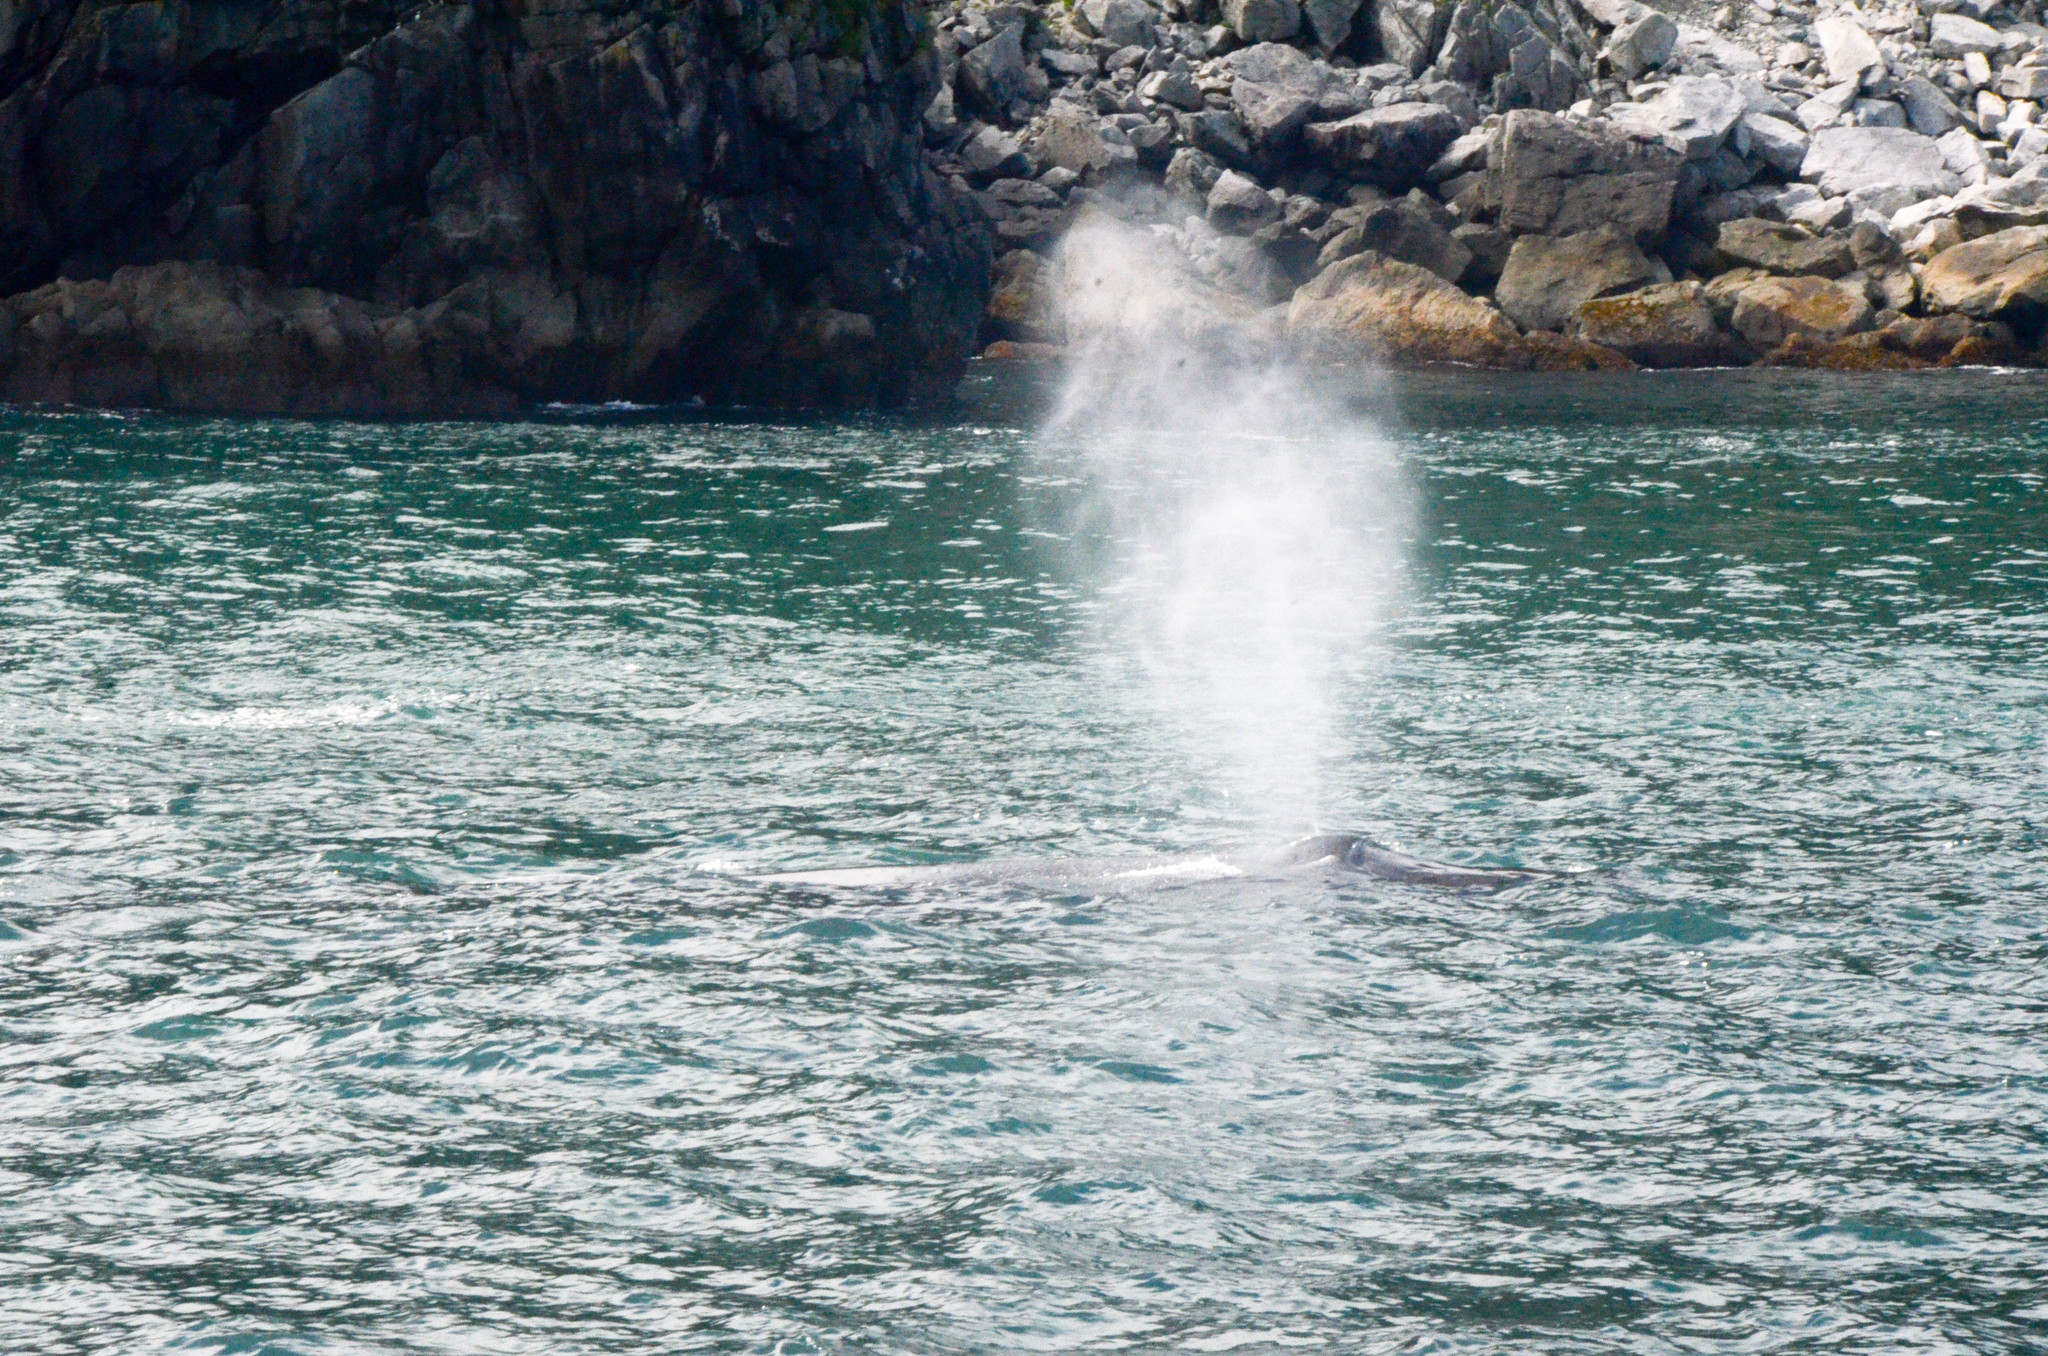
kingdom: Animalia
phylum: Chordata
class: Mammalia
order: Cetacea
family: Balaenopteridae
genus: Megaptera
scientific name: Megaptera novaeangliae
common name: Humpback whale
